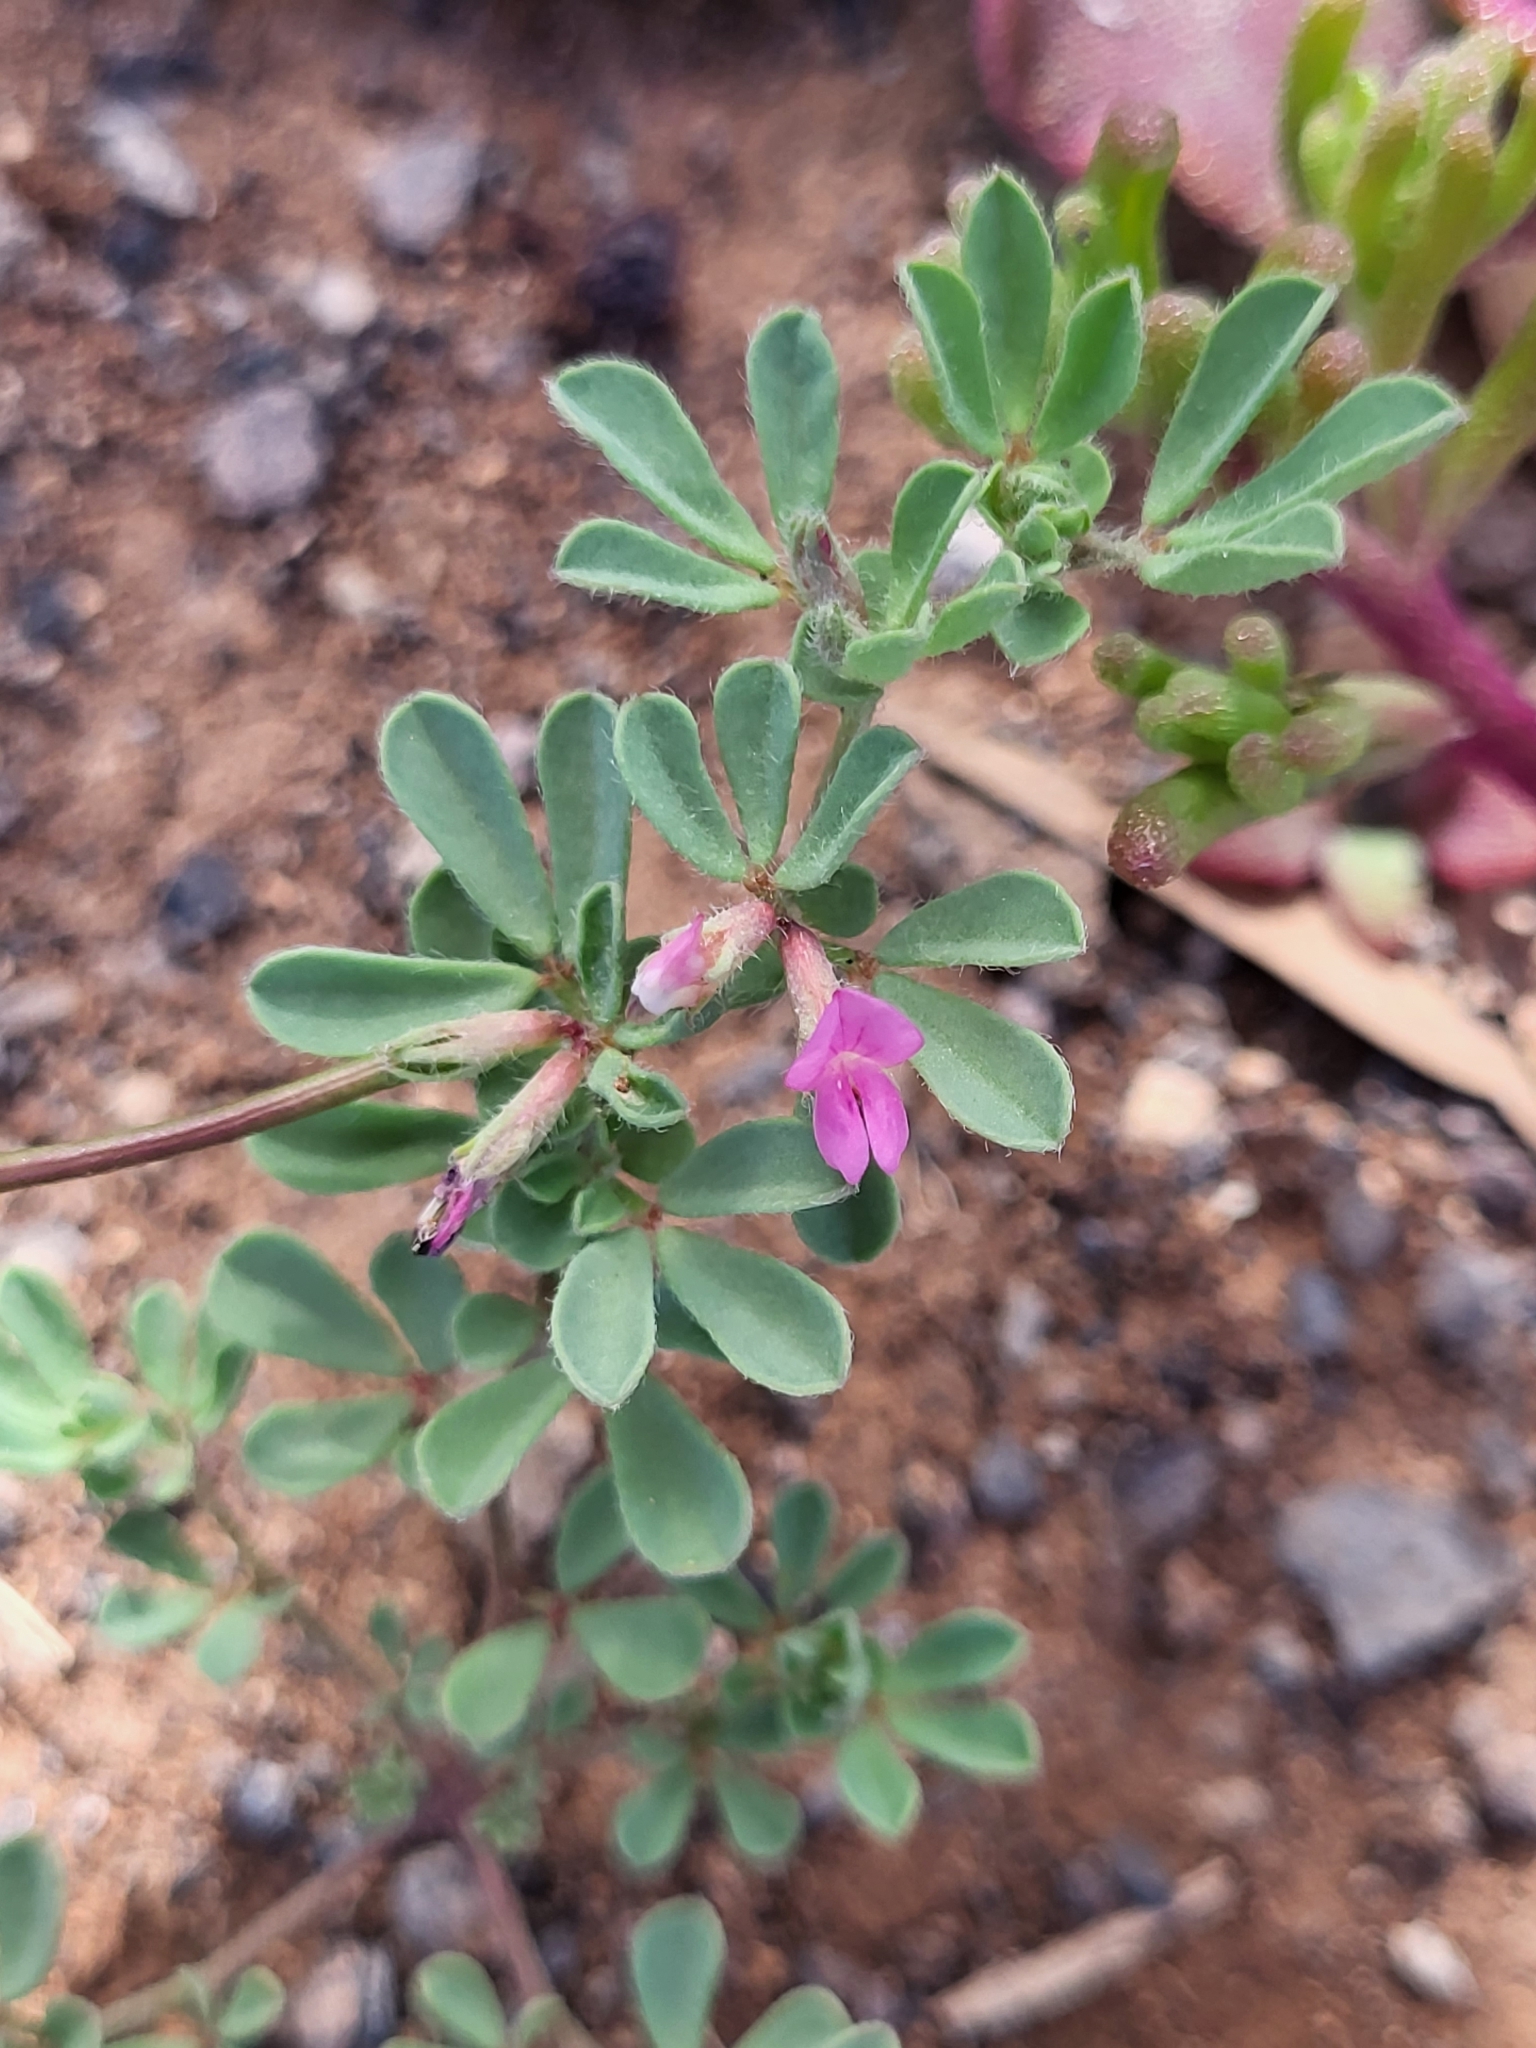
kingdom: Plantae
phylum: Tracheophyta
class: Magnoliopsida
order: Fabales
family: Fabaceae
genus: Lotus
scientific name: Lotus glinoides
